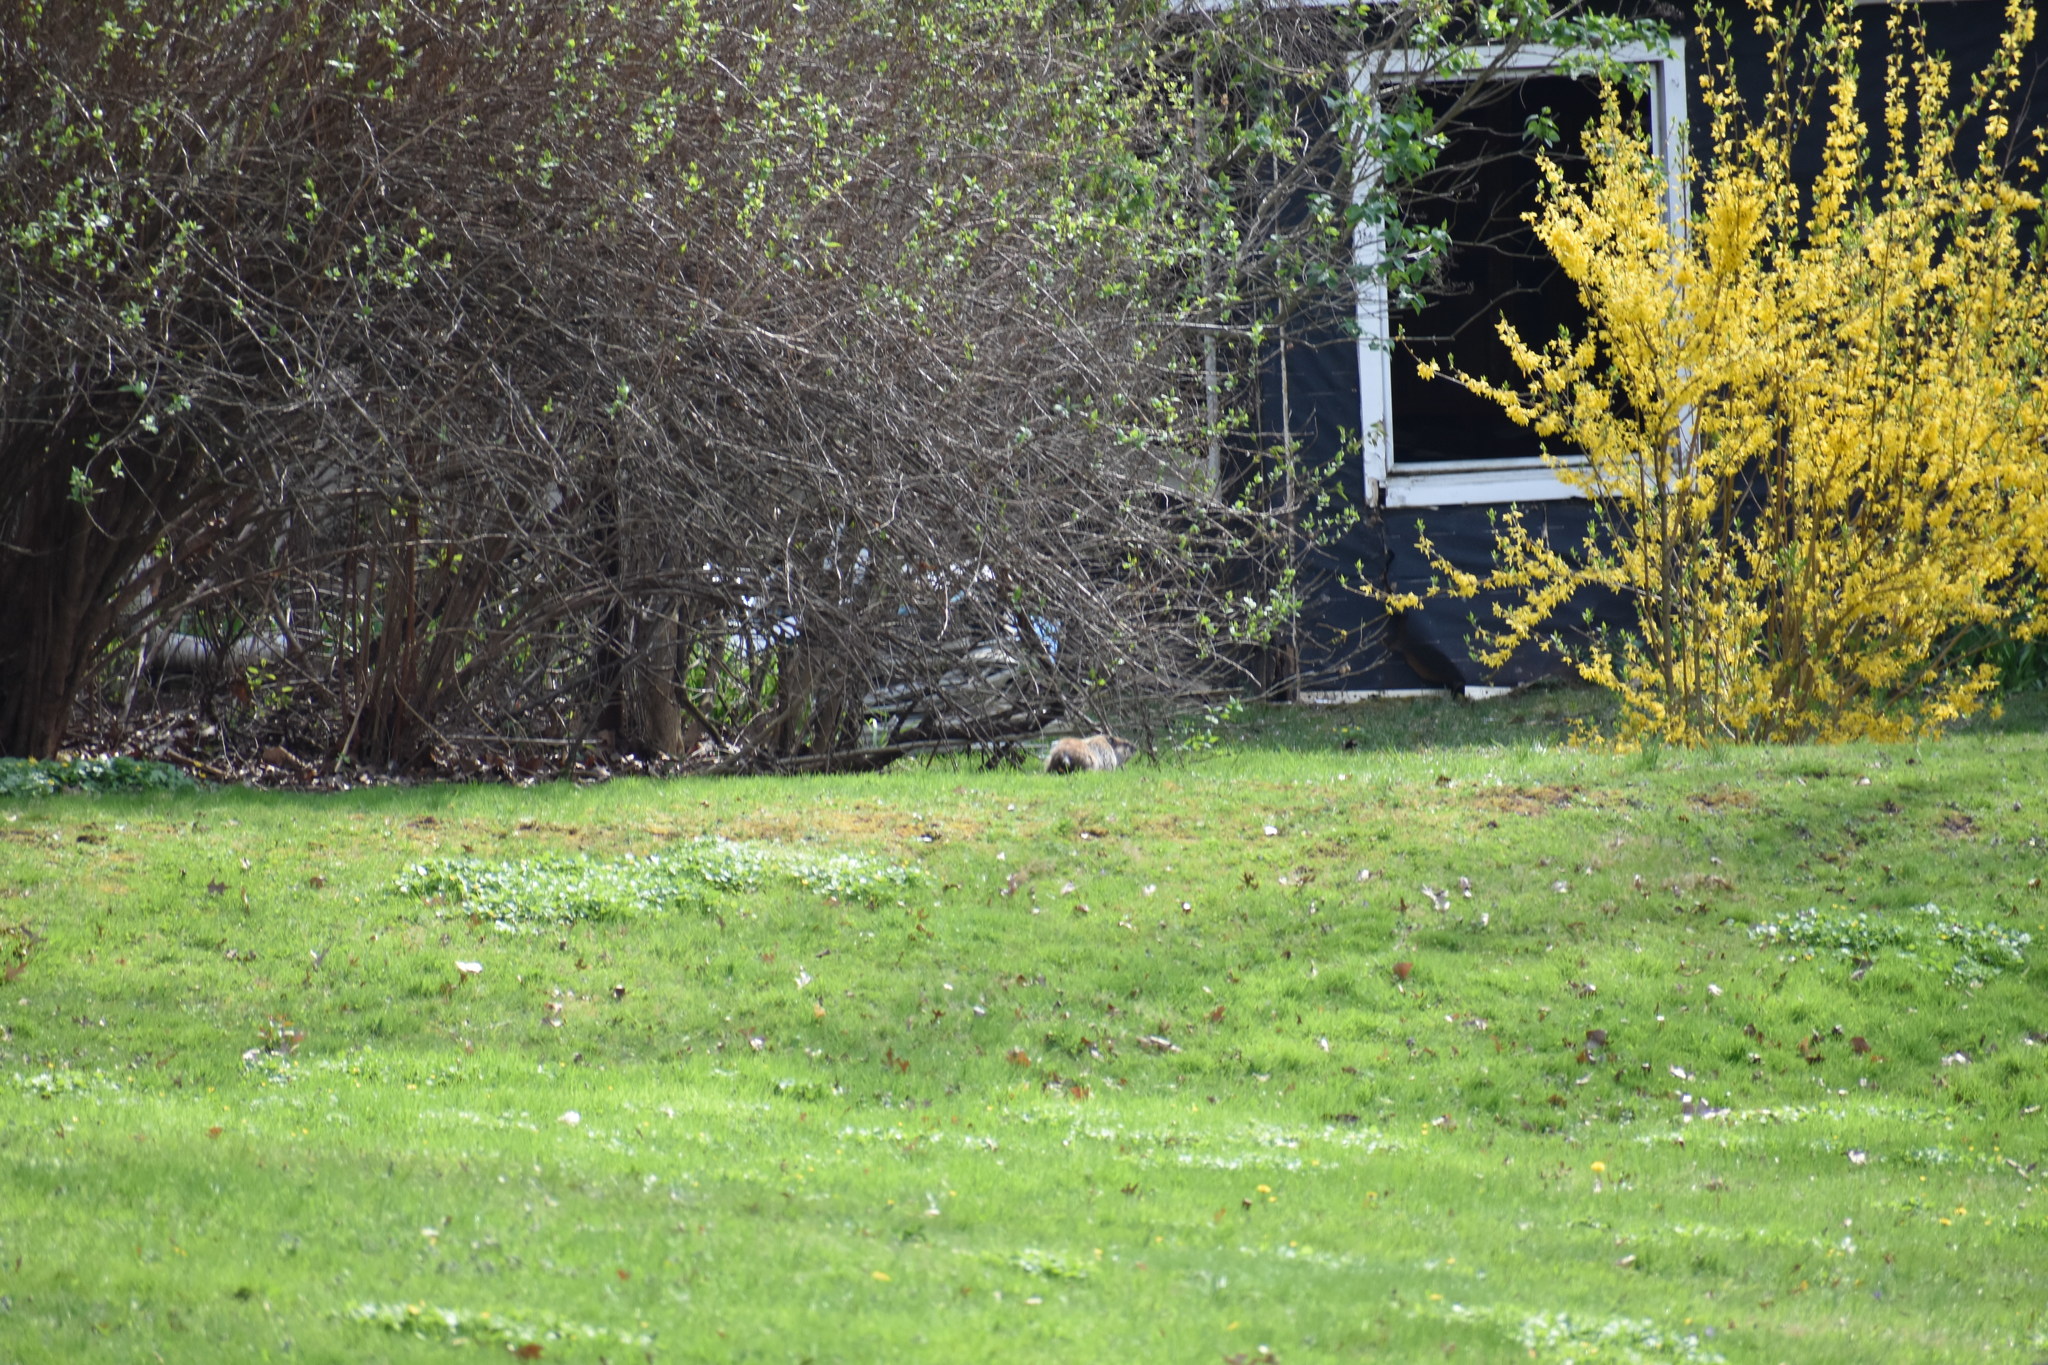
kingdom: Animalia
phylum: Chordata
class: Mammalia
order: Rodentia
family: Sciuridae
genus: Marmota
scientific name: Marmota monax
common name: Groundhog
